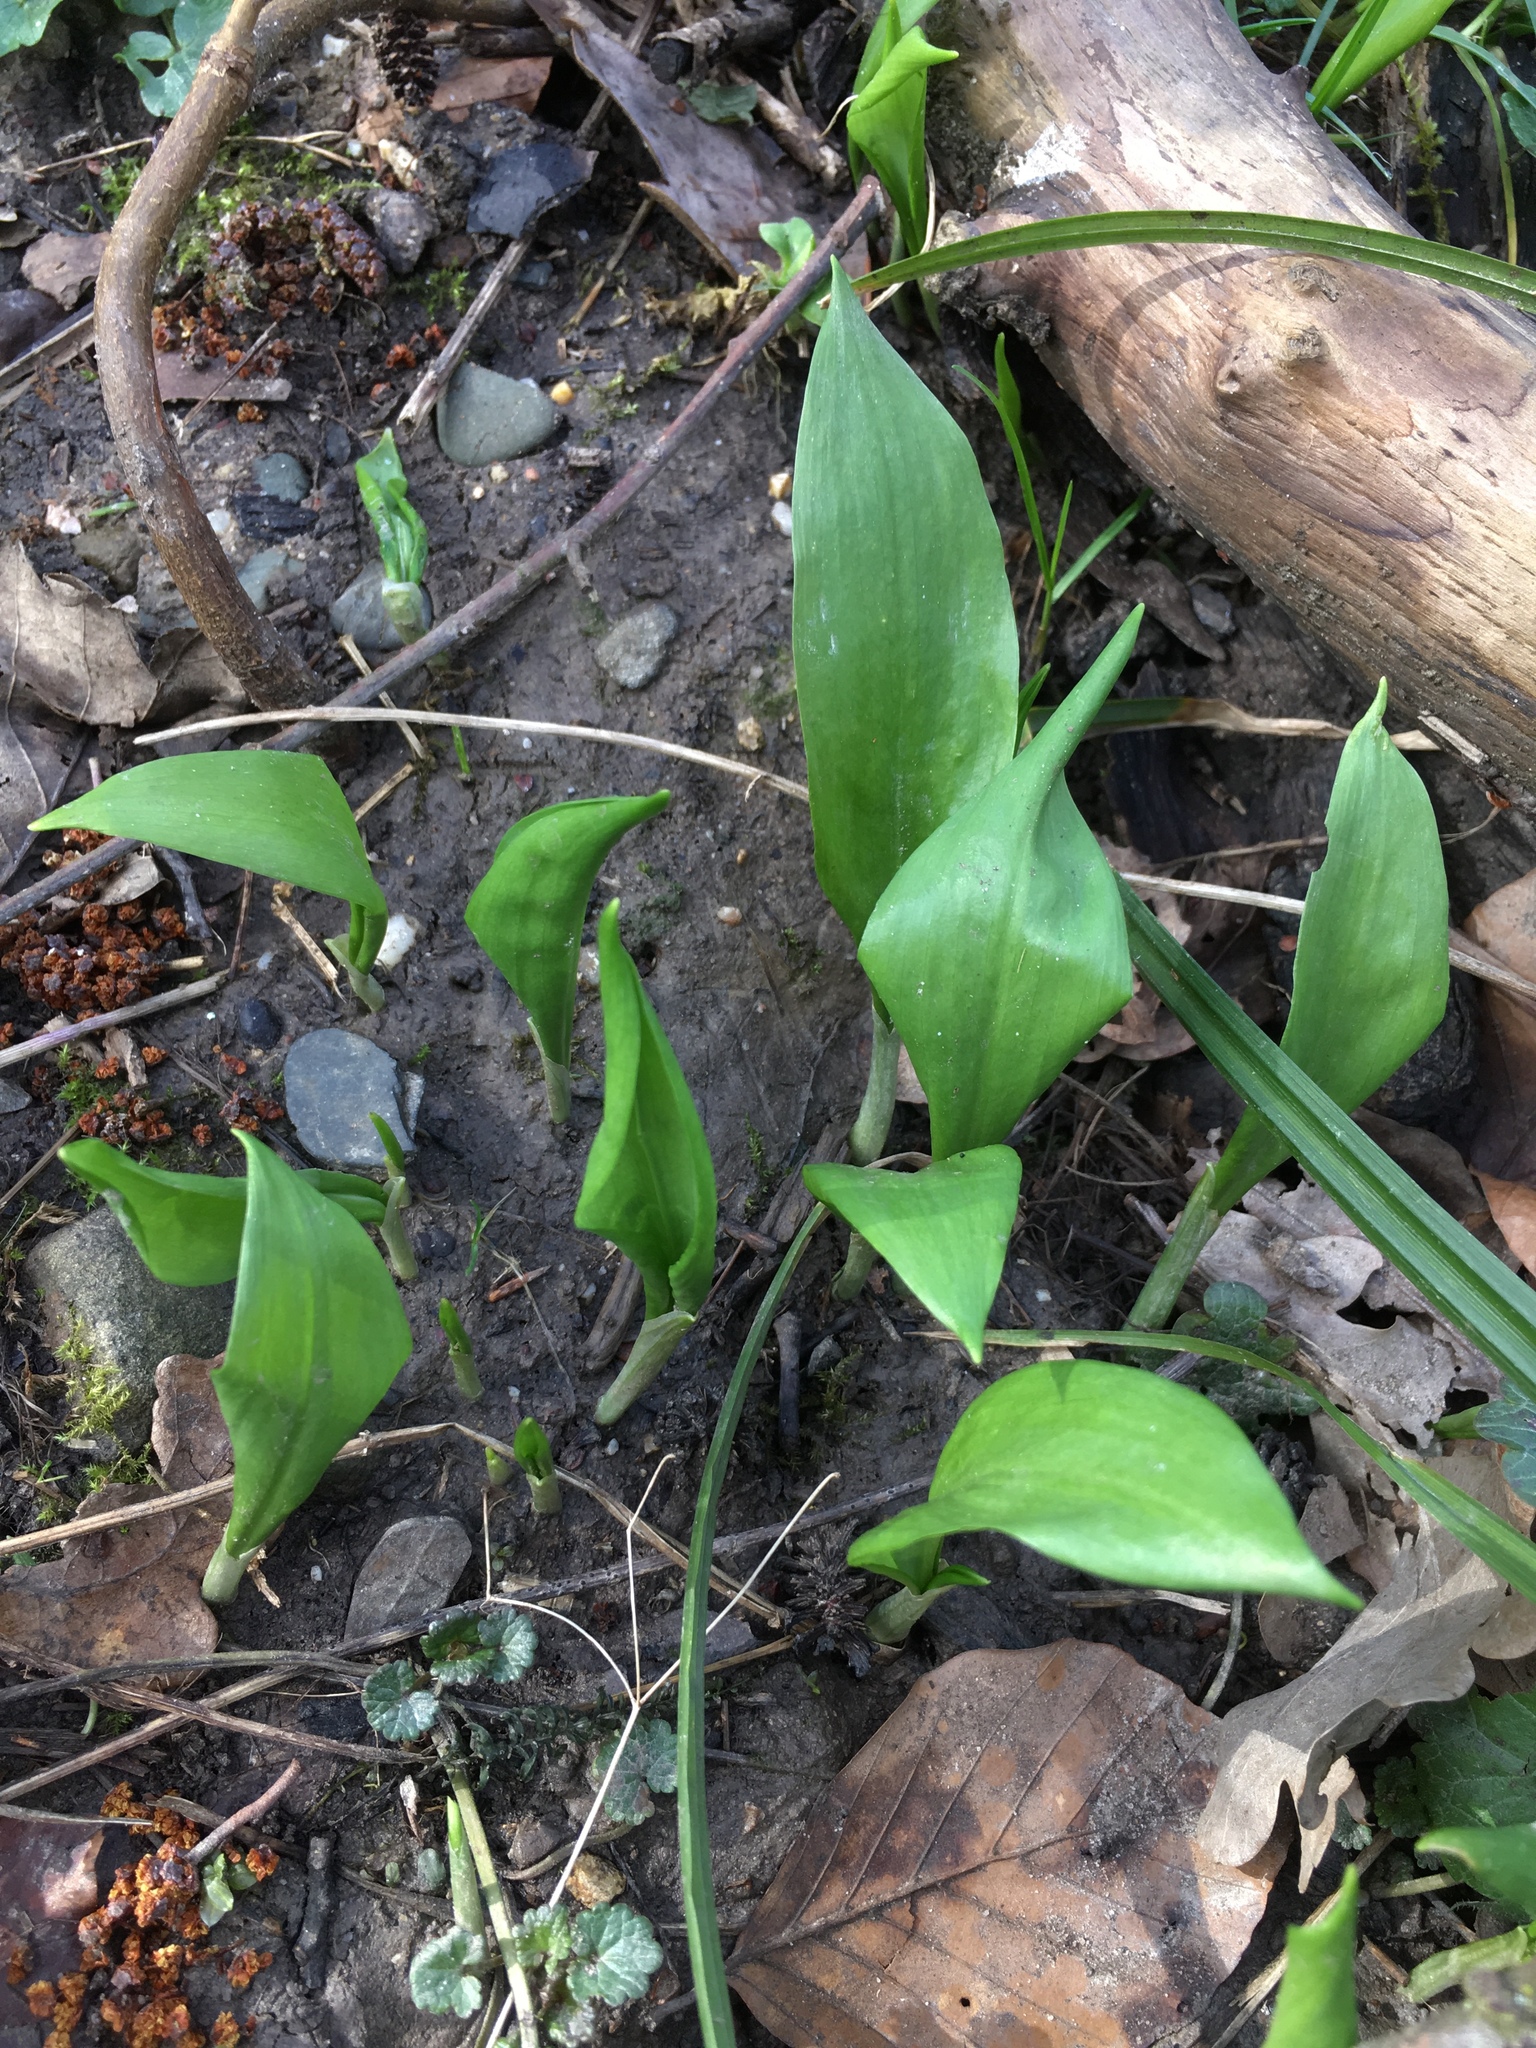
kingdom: Plantae
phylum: Tracheophyta
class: Liliopsida
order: Asparagales
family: Amaryllidaceae
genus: Allium
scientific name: Allium ursinum
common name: Ramsons
